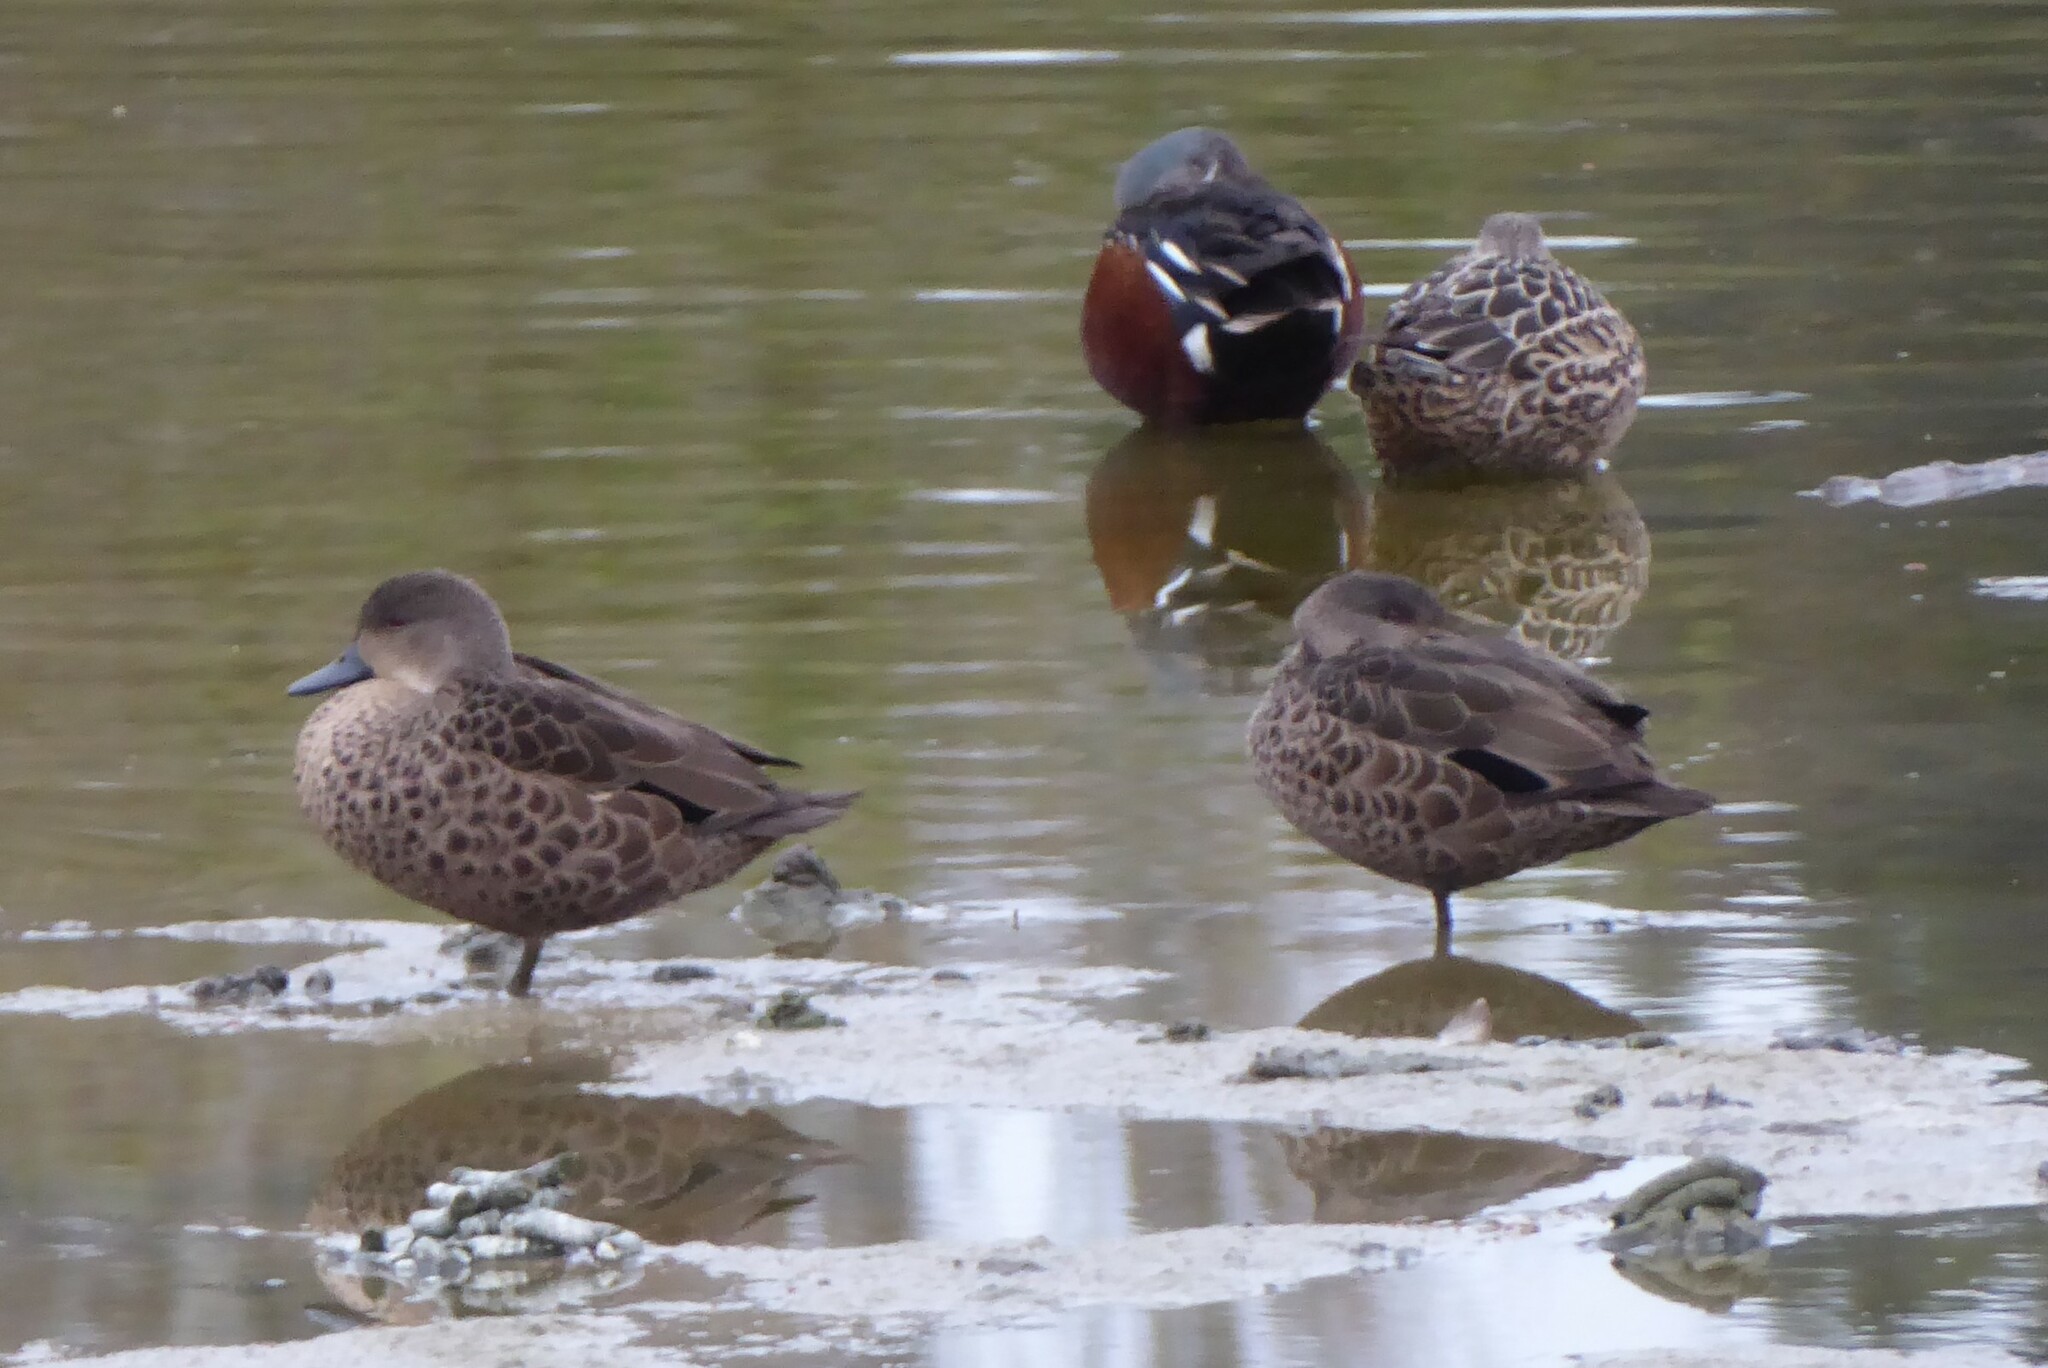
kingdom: Animalia
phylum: Chordata
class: Aves
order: Anseriformes
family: Anatidae
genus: Anas
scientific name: Anas gracilis
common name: Grey teal
